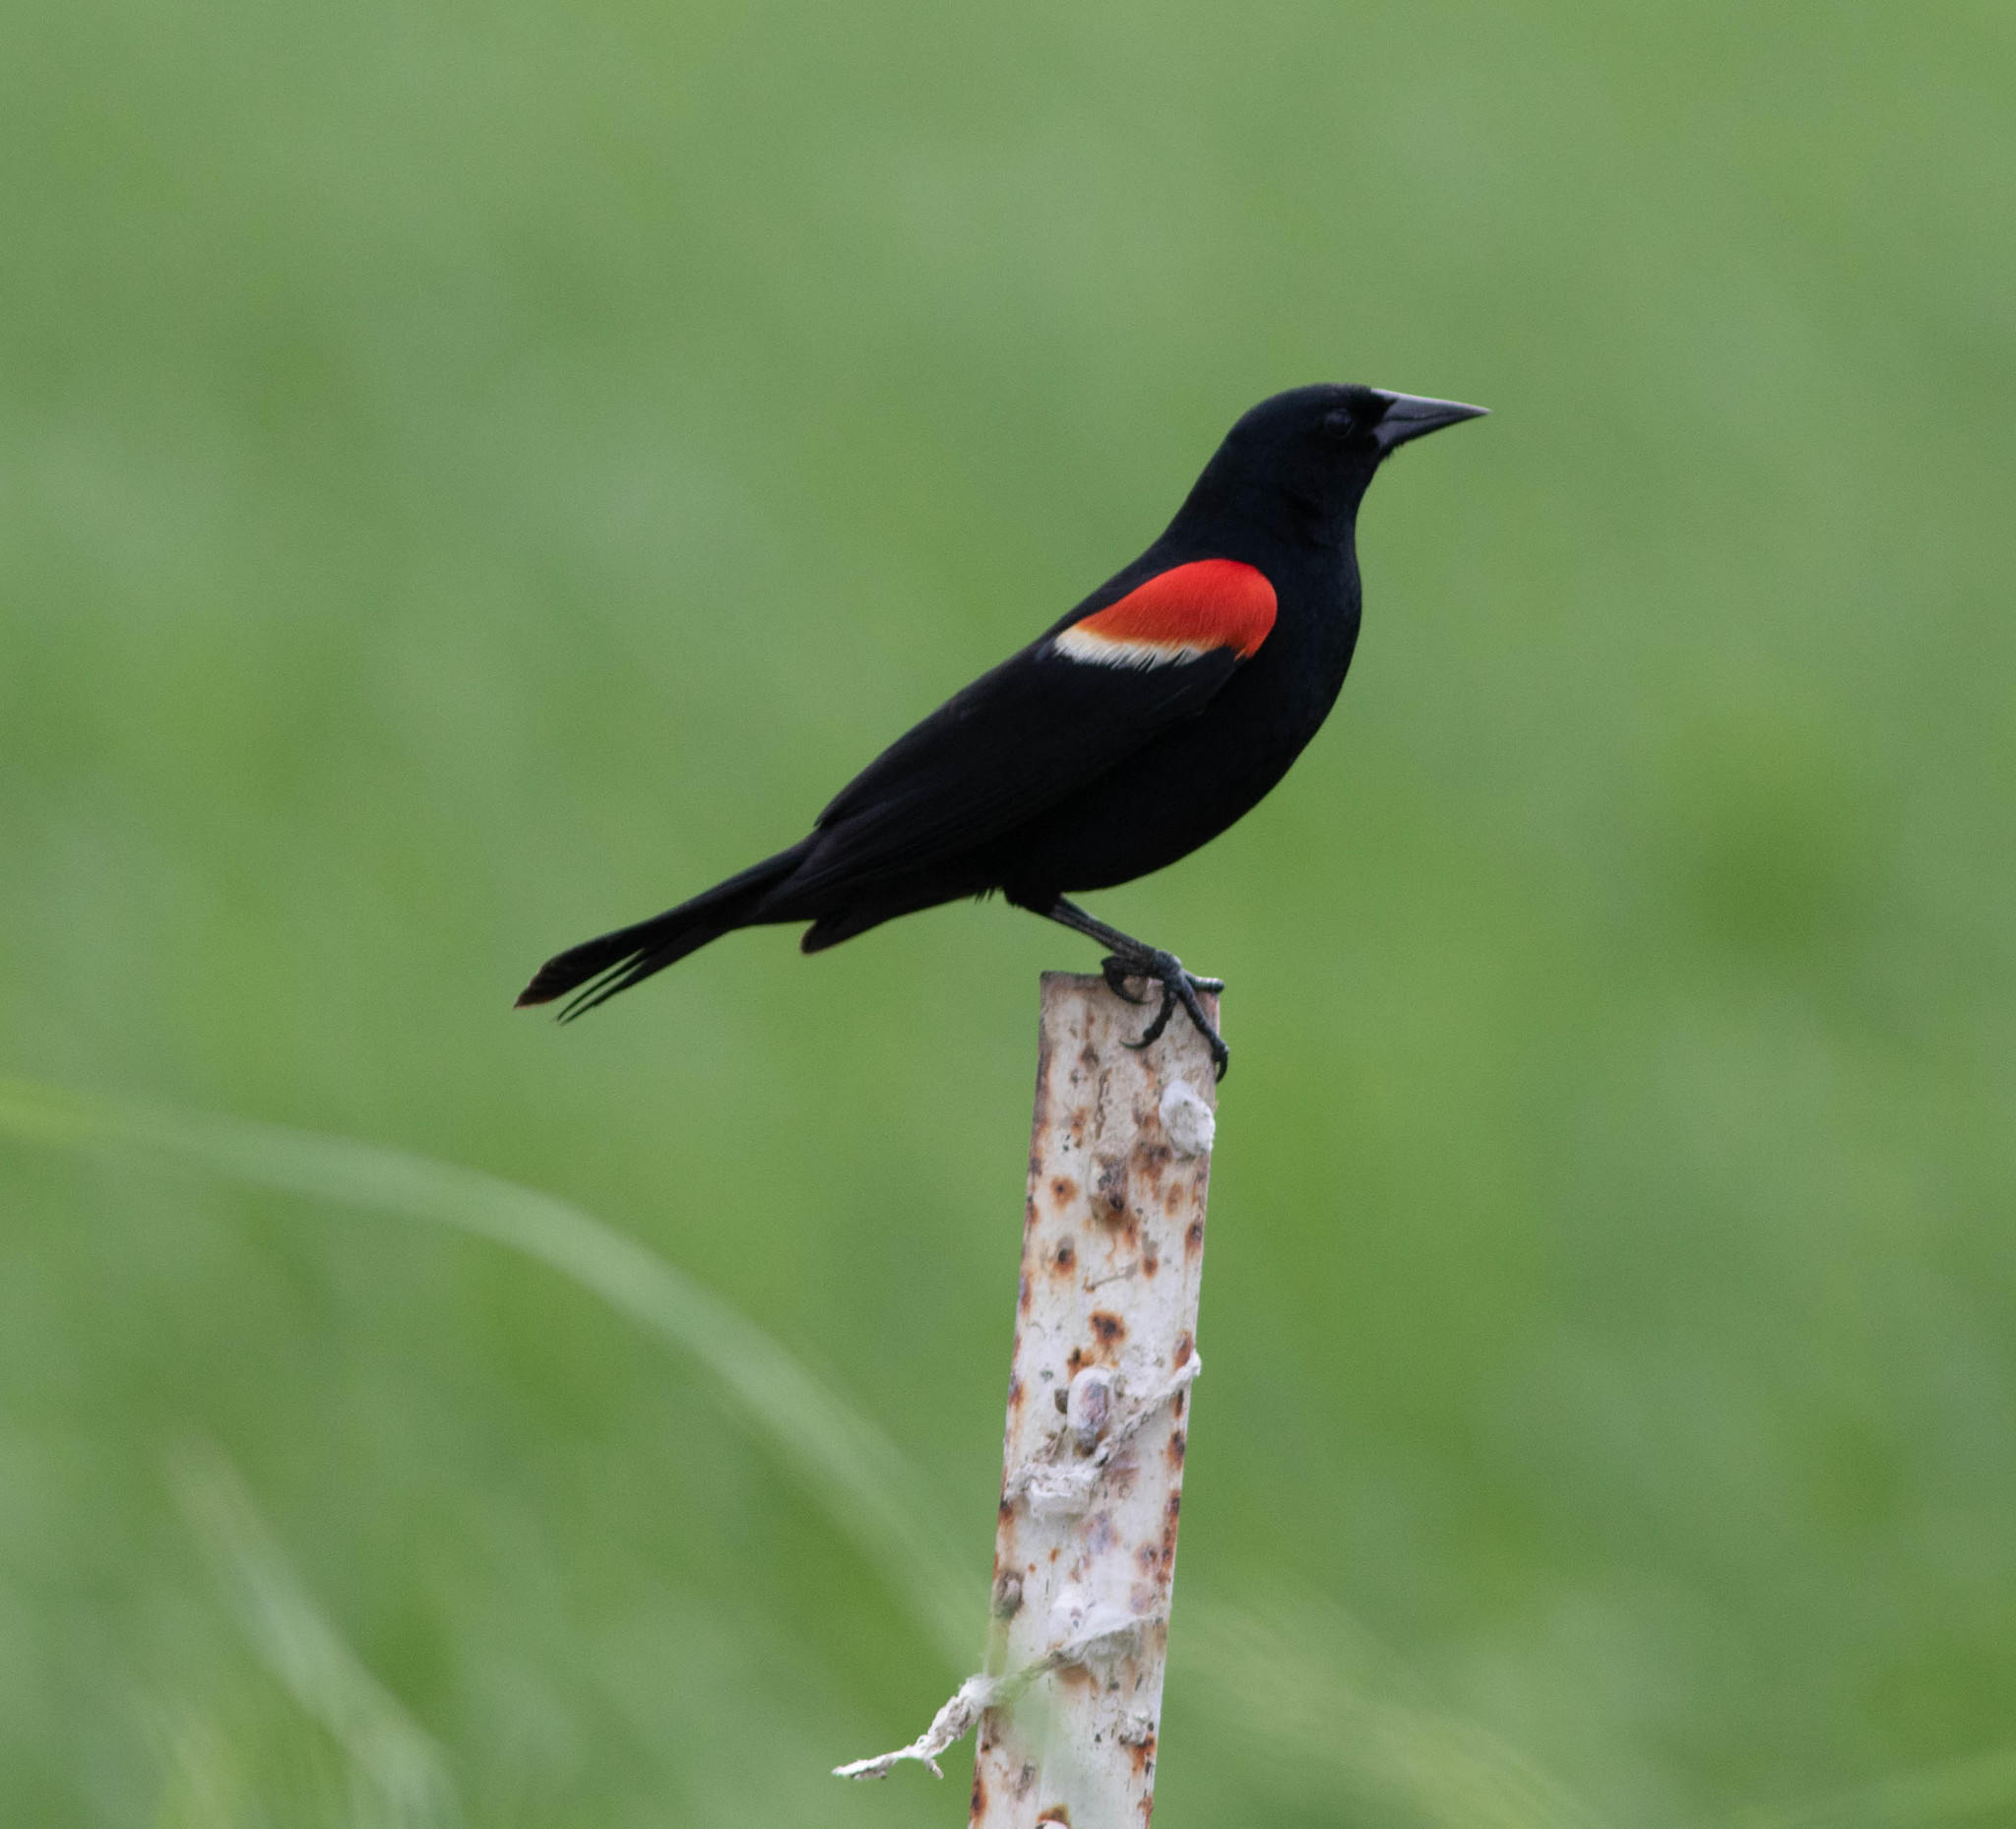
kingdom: Animalia
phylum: Chordata
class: Aves
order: Passeriformes
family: Icteridae
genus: Agelaius
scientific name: Agelaius phoeniceus
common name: Red-winged blackbird
